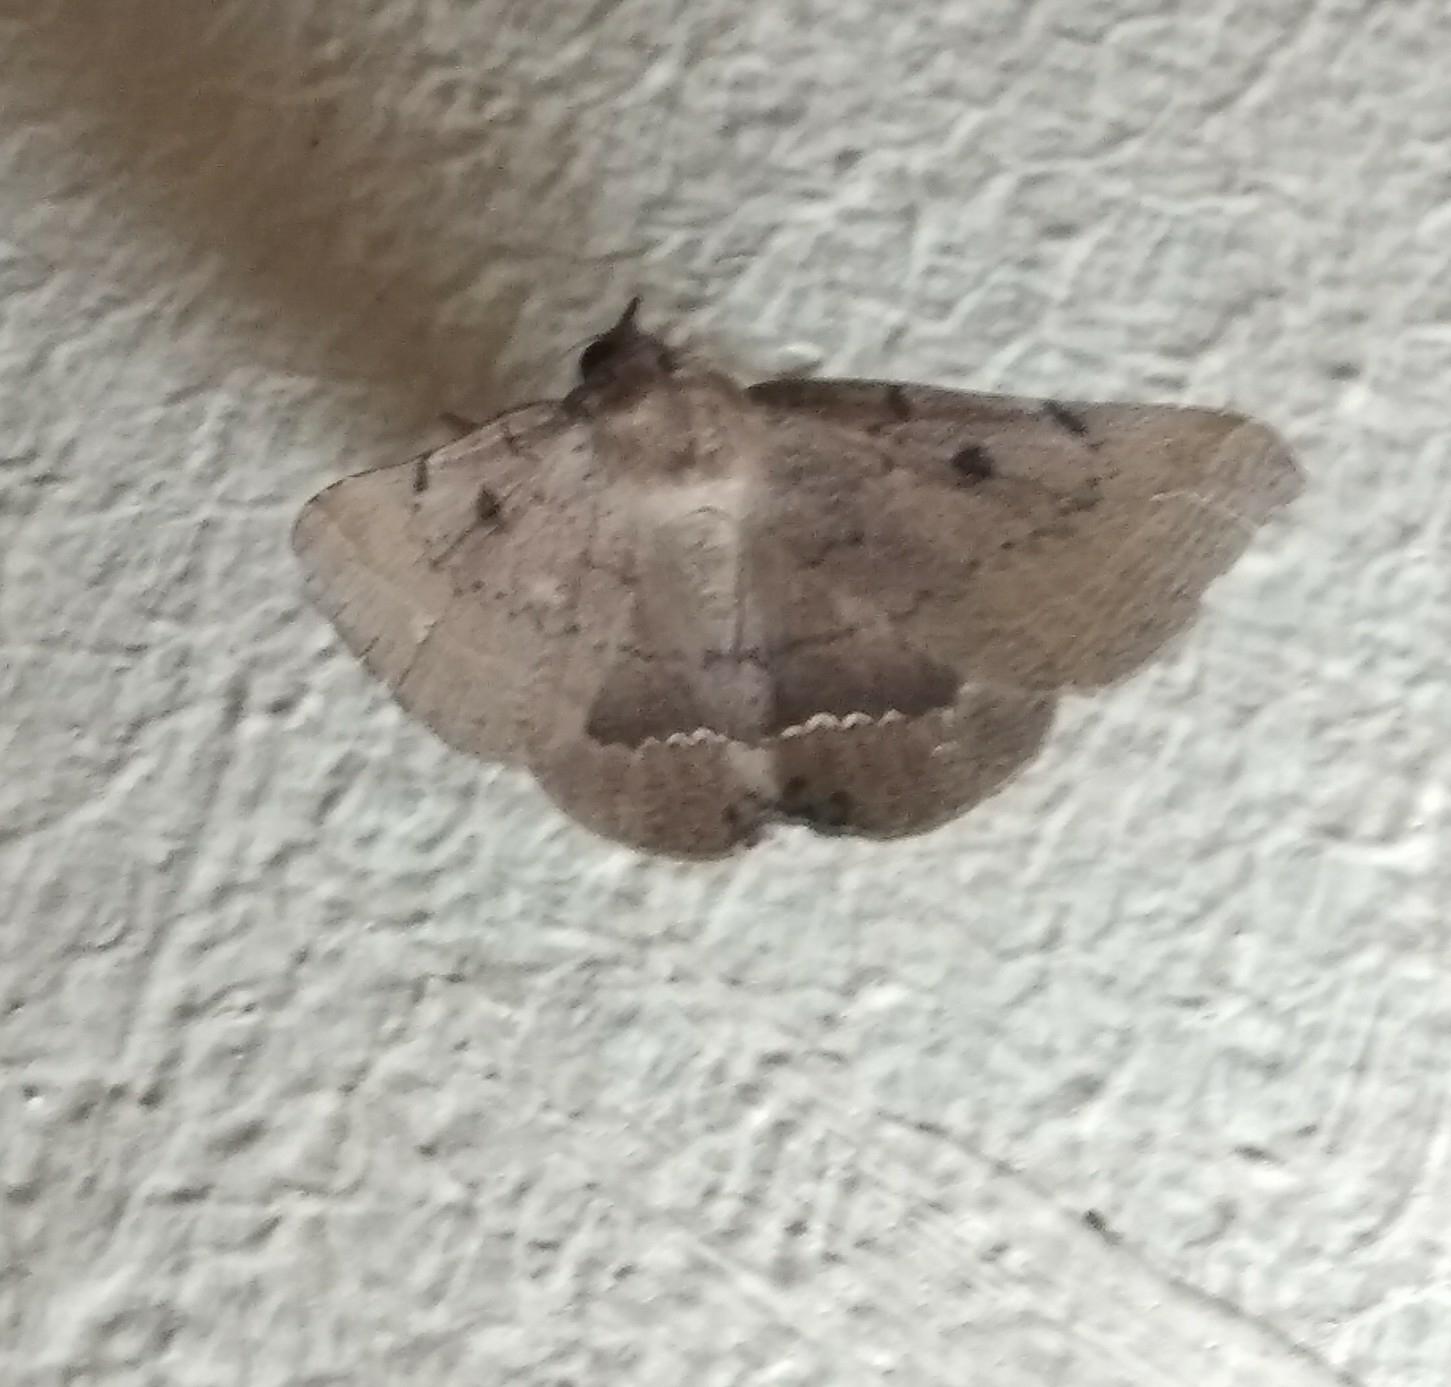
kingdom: Animalia
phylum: Arthropoda
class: Insecta
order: Lepidoptera
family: Erebidae
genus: Macaldenia
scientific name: Macaldenia palumba
